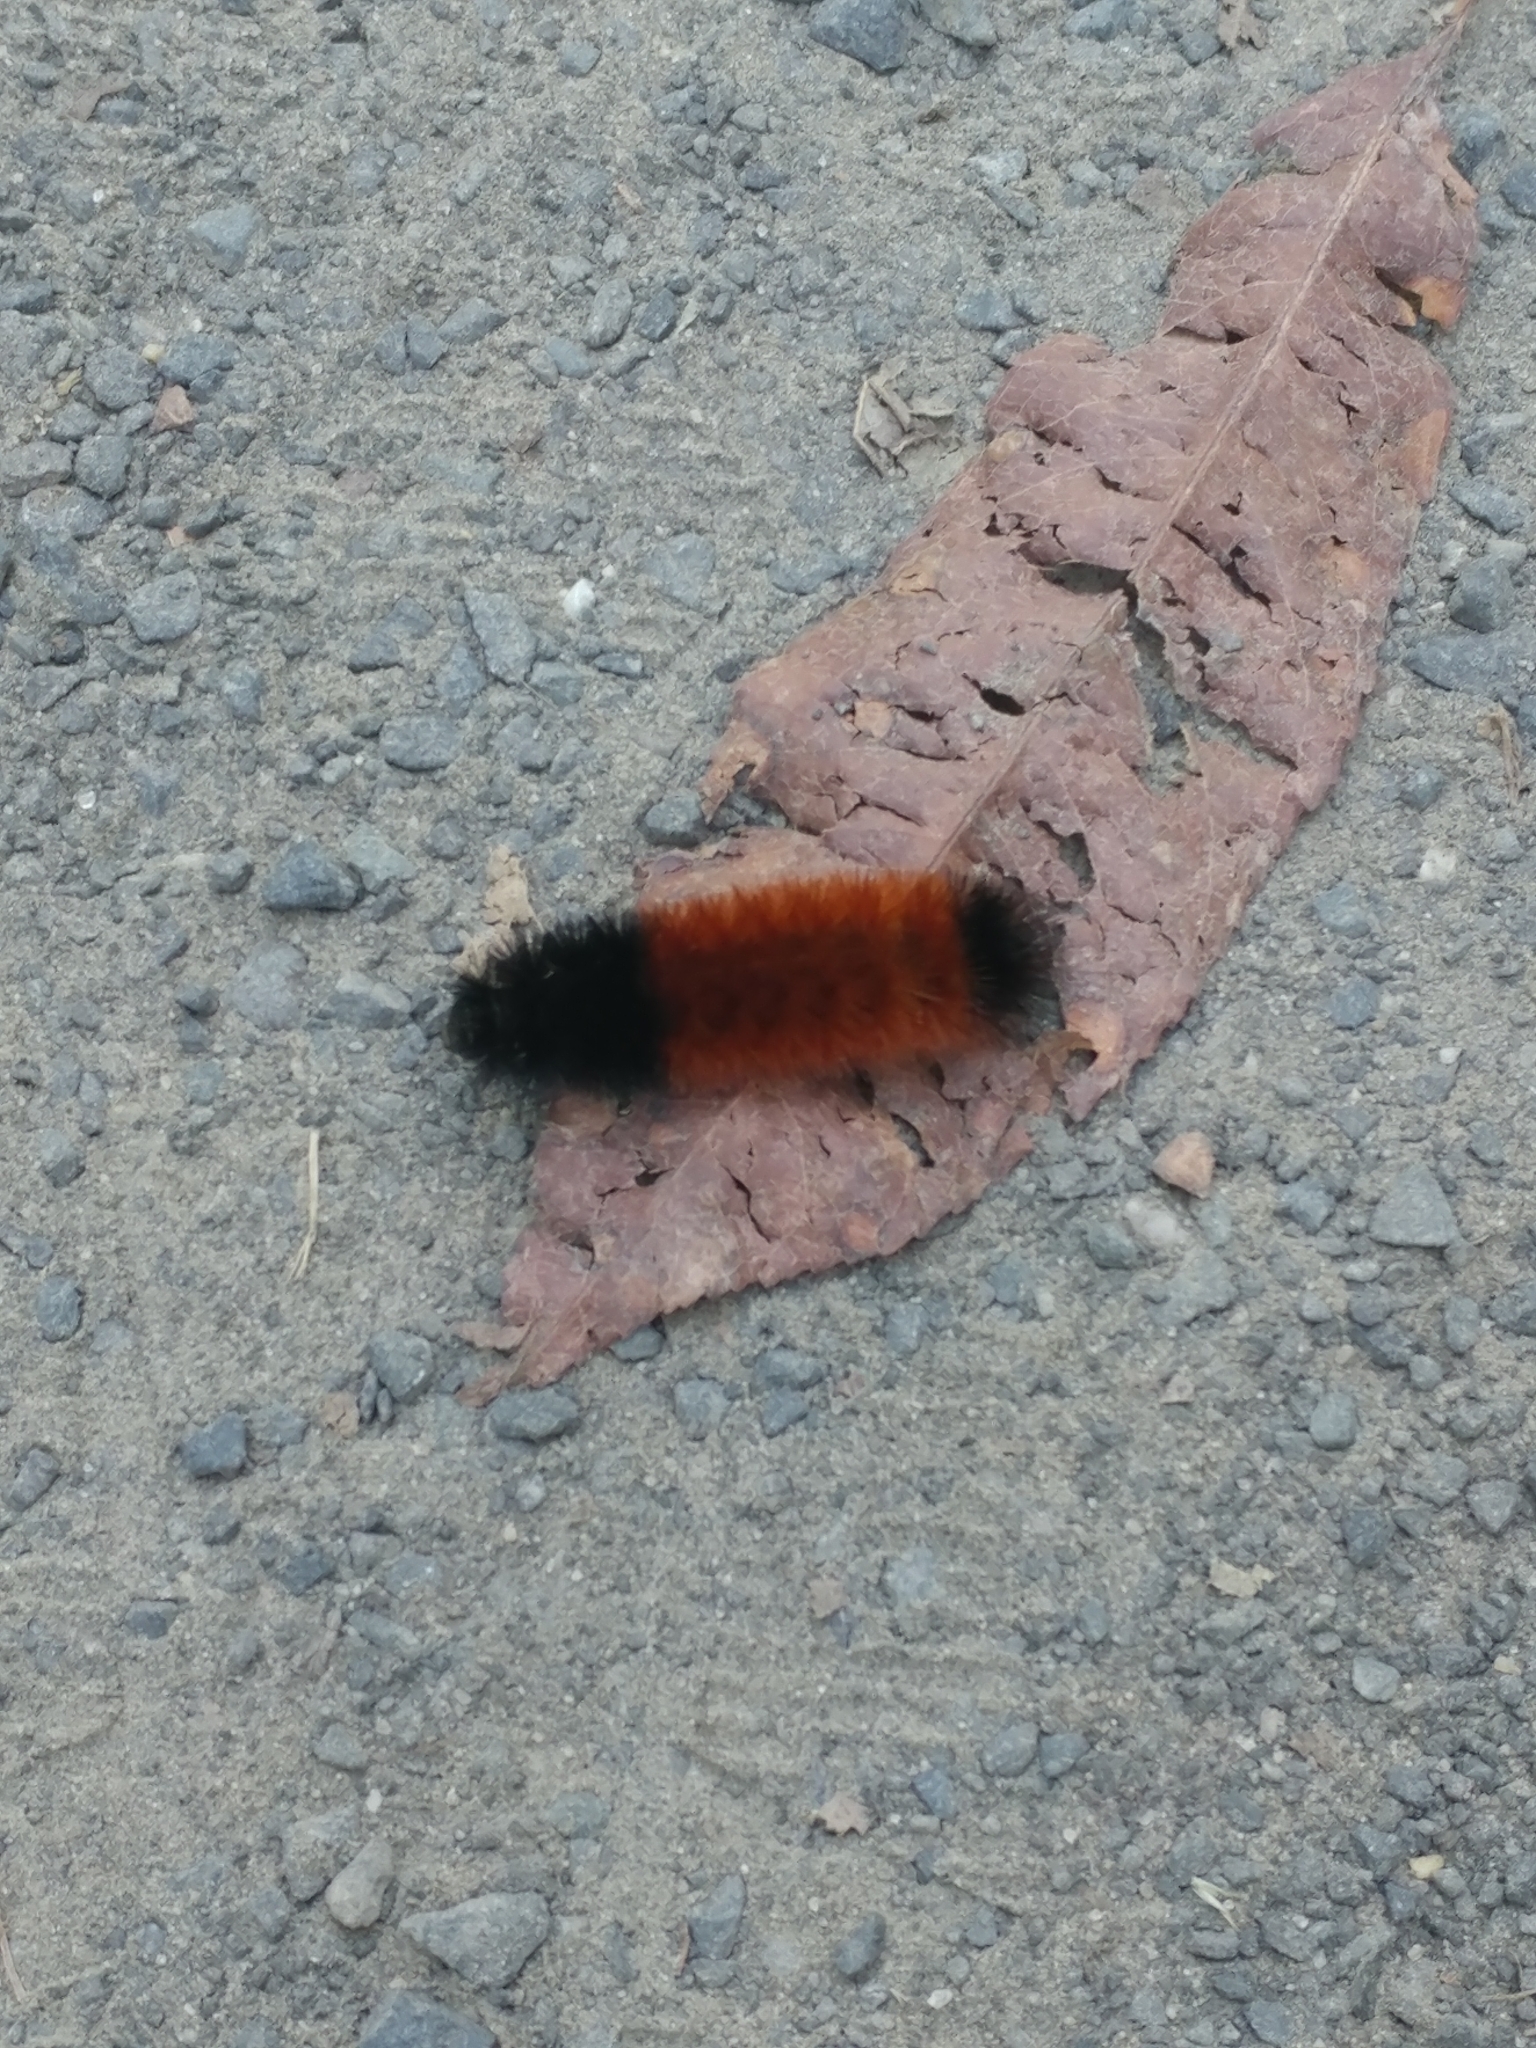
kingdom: Animalia
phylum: Arthropoda
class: Insecta
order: Lepidoptera
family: Erebidae
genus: Pyrrharctia
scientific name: Pyrrharctia isabella
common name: Isabella tiger moth
